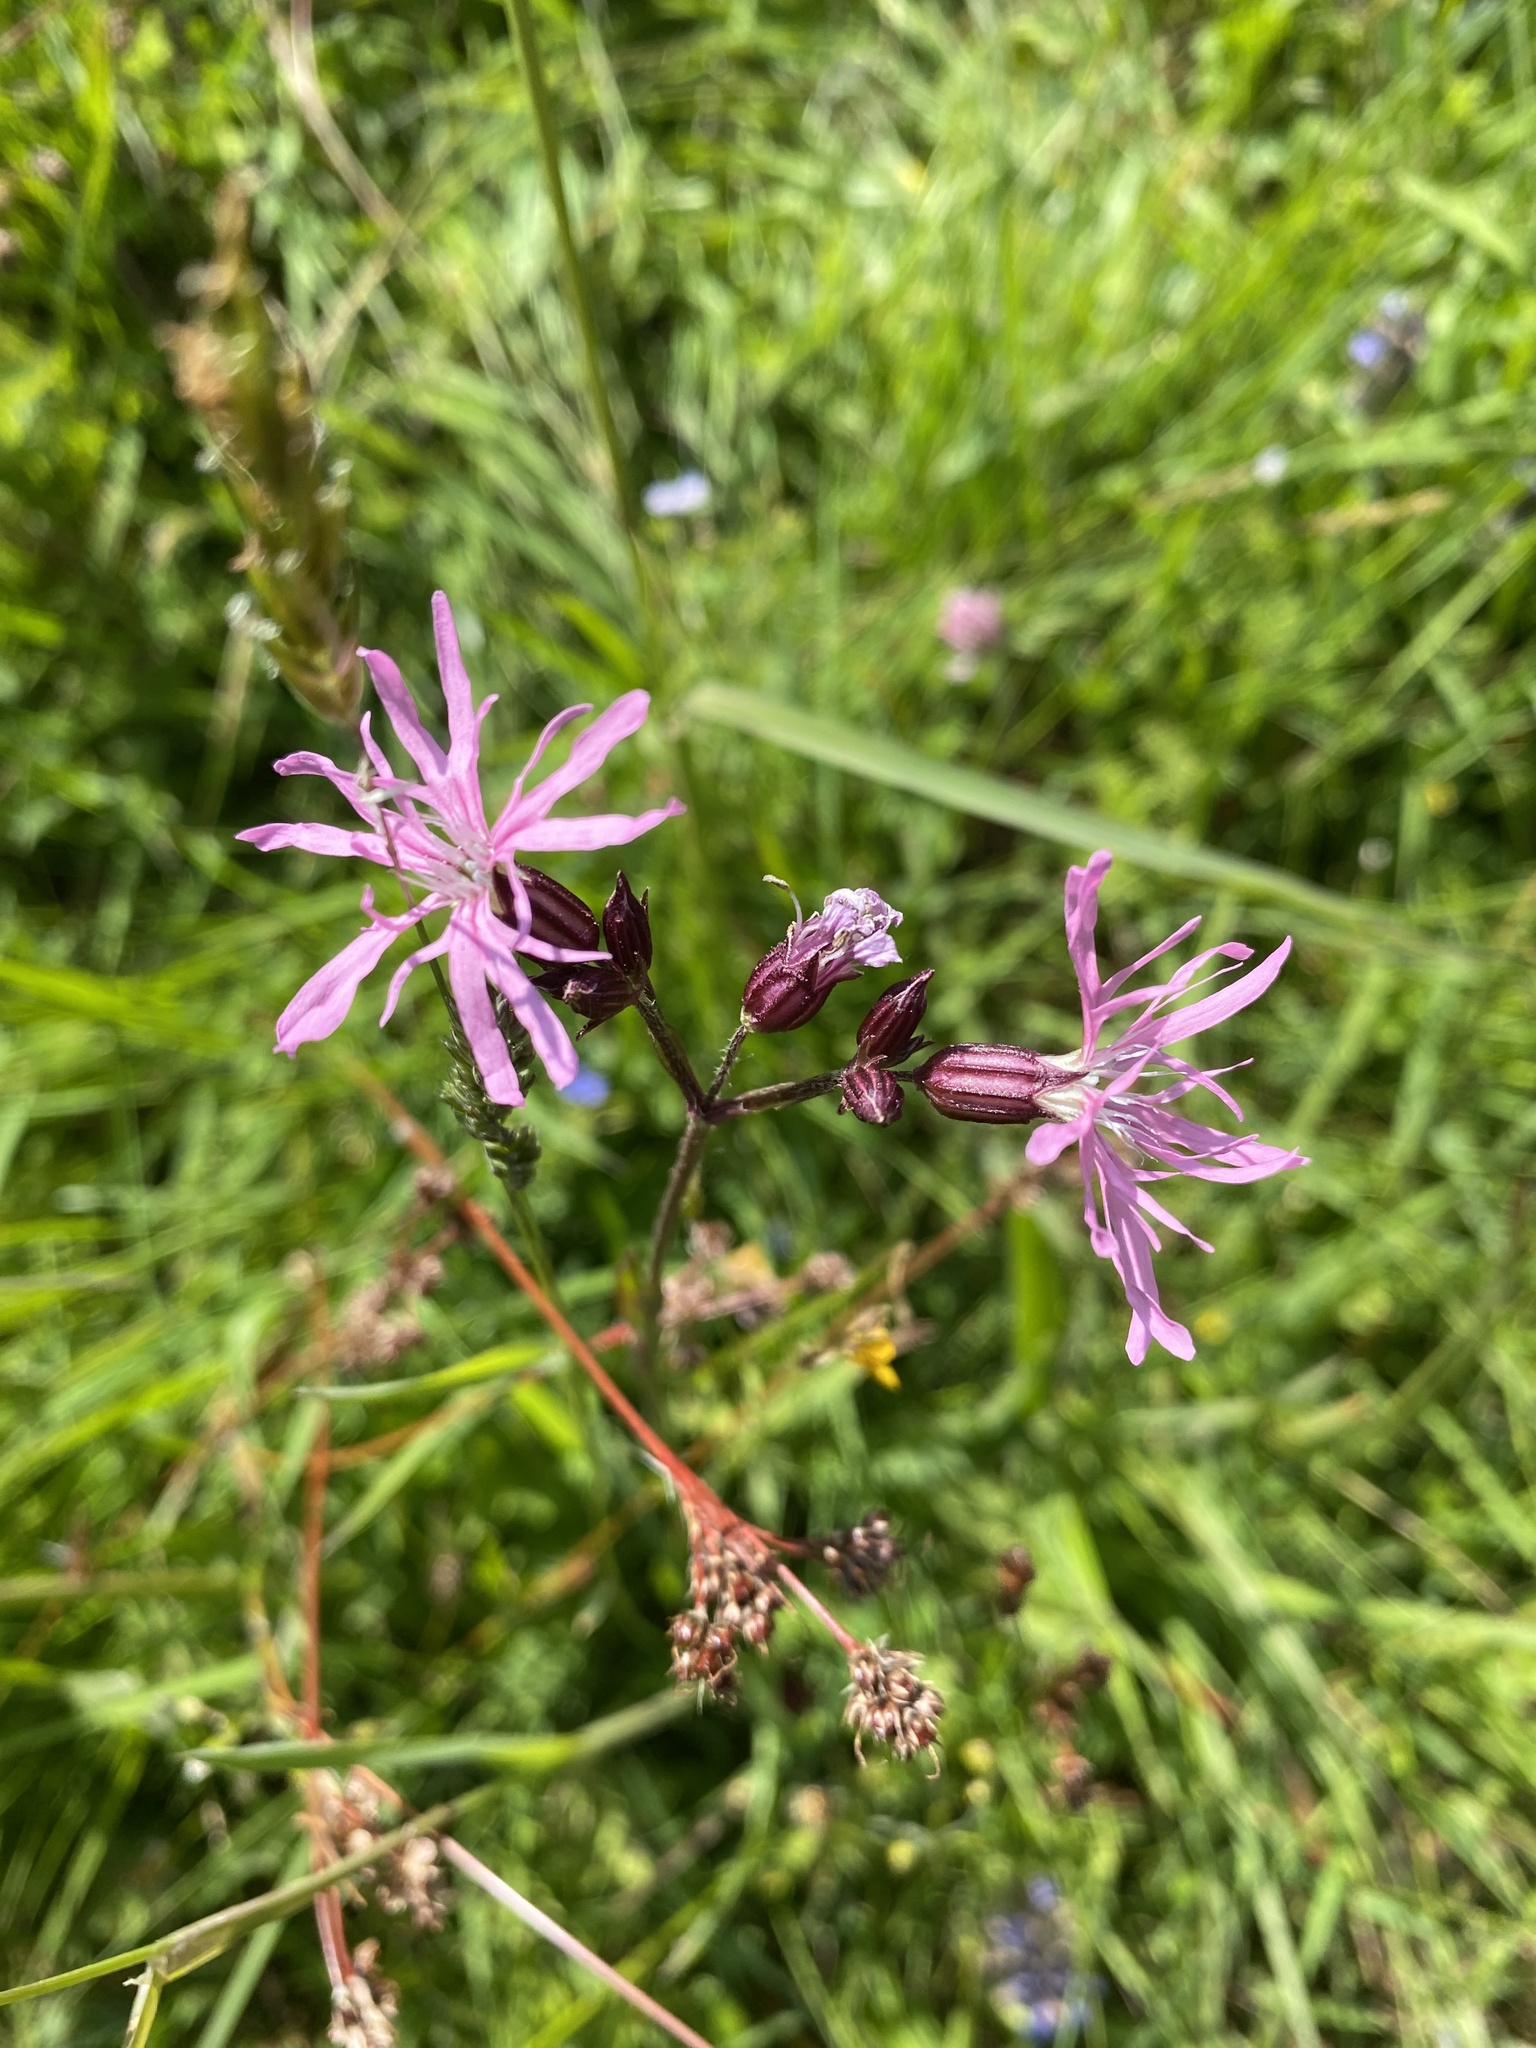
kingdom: Plantae
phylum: Tracheophyta
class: Magnoliopsida
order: Caryophyllales
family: Caryophyllaceae
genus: Silene
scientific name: Silene flos-cuculi
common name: Ragged-robin
